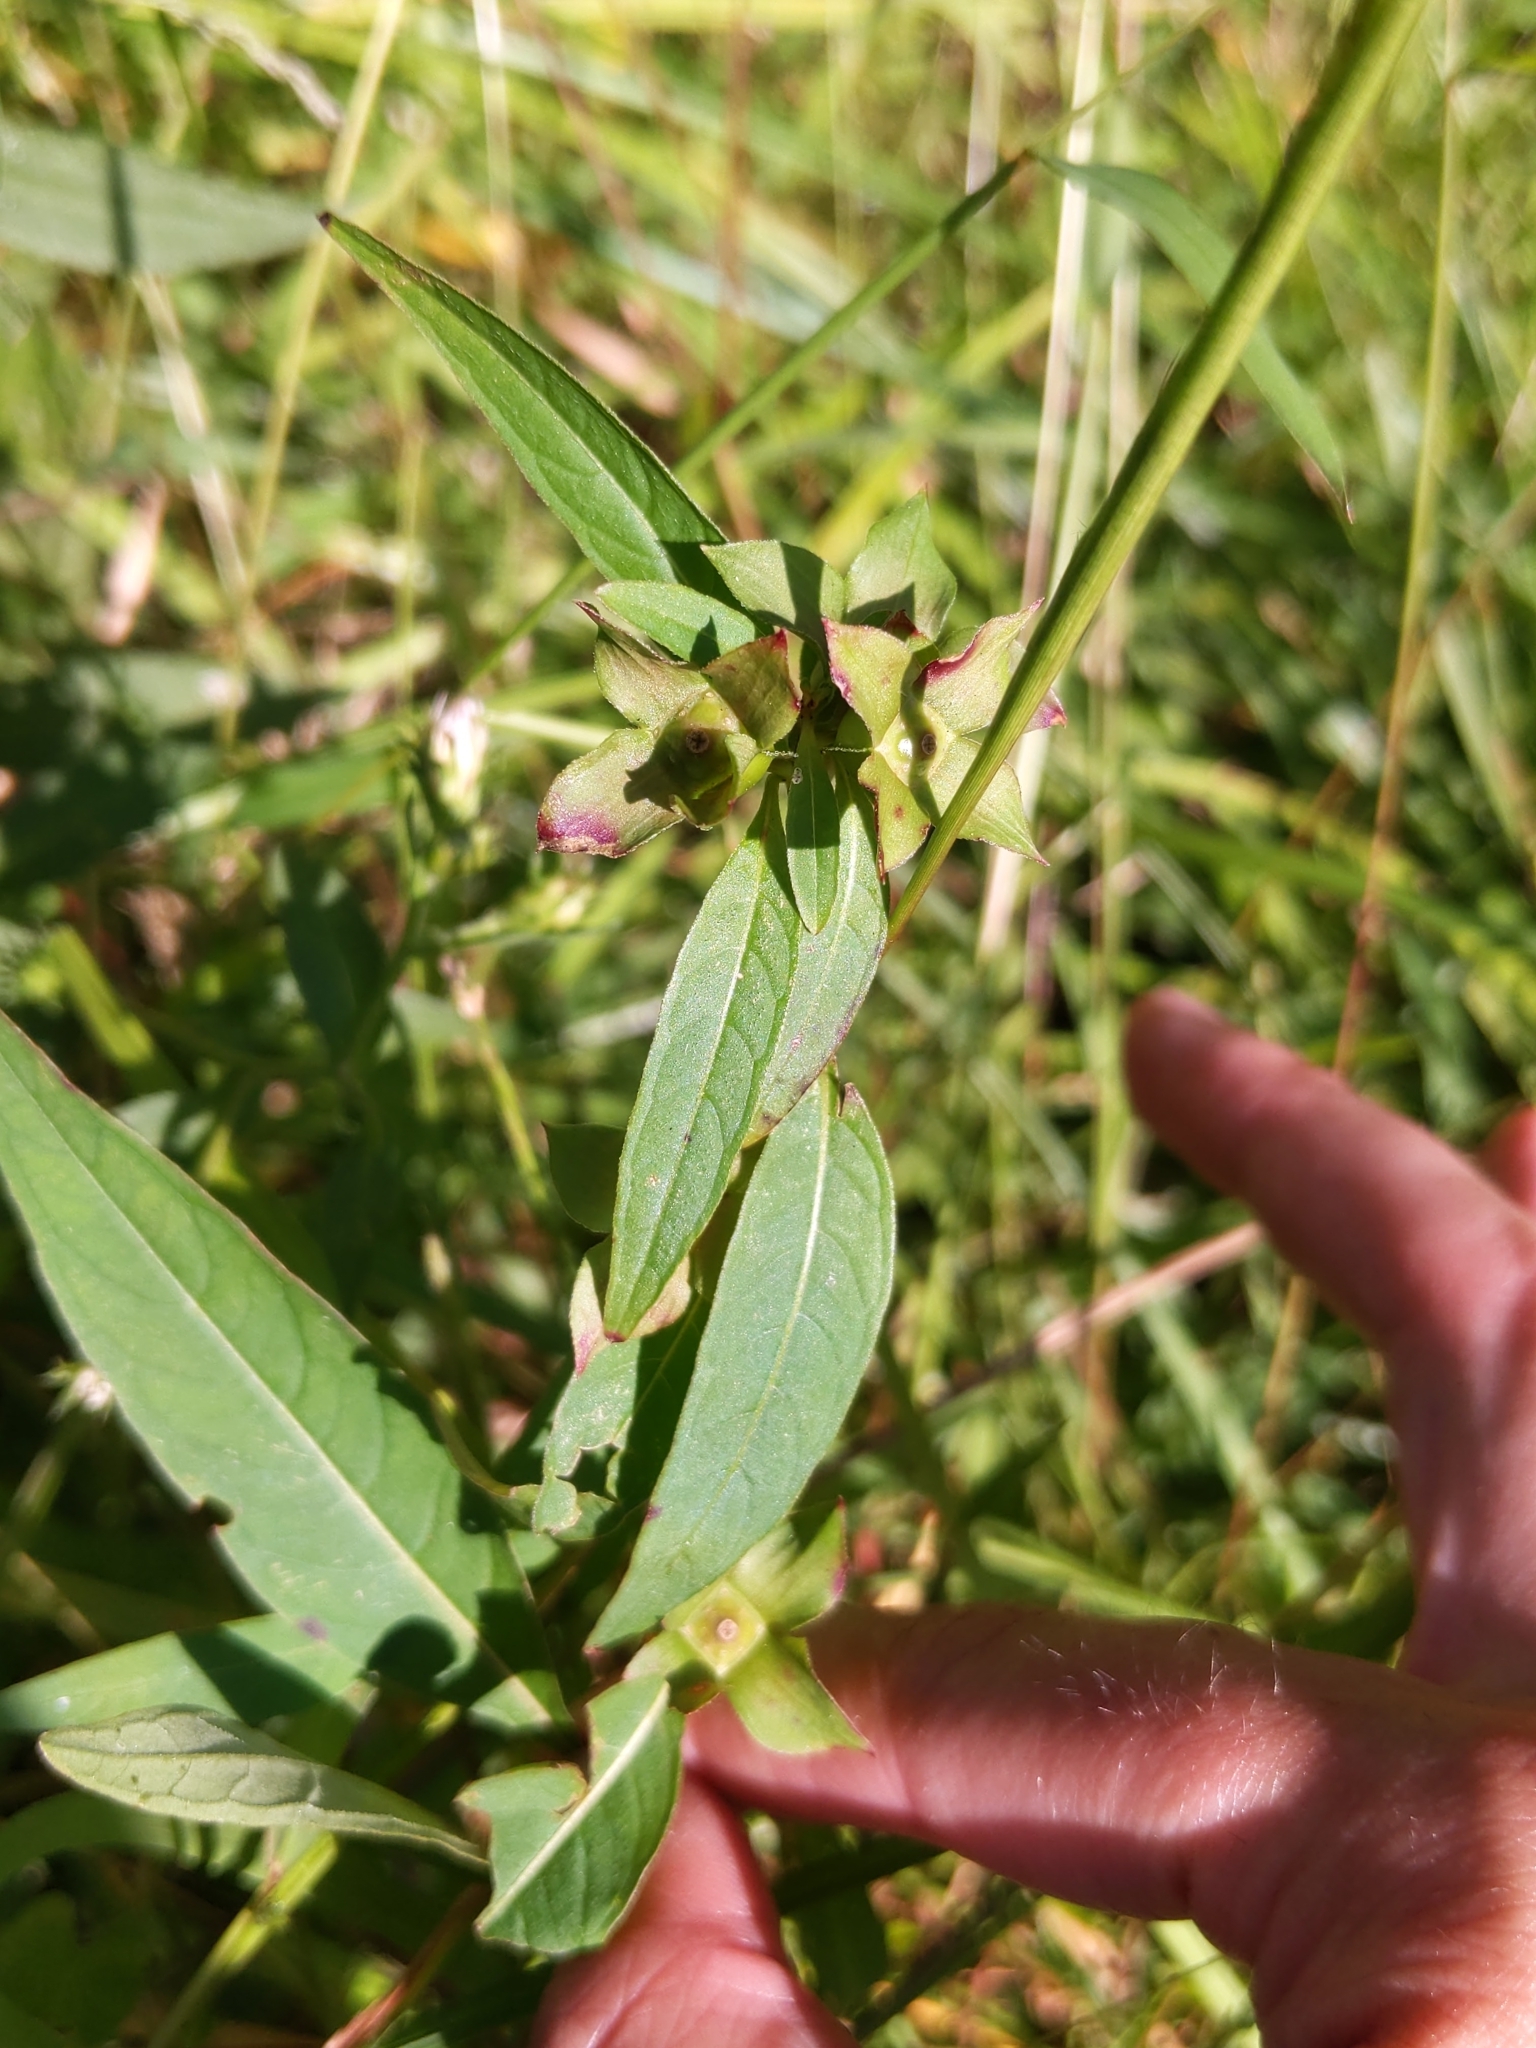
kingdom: Plantae
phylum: Tracheophyta
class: Magnoliopsida
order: Myrtales
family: Onagraceae
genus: Ludwigia
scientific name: Ludwigia alternifolia
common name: Rattlebox
